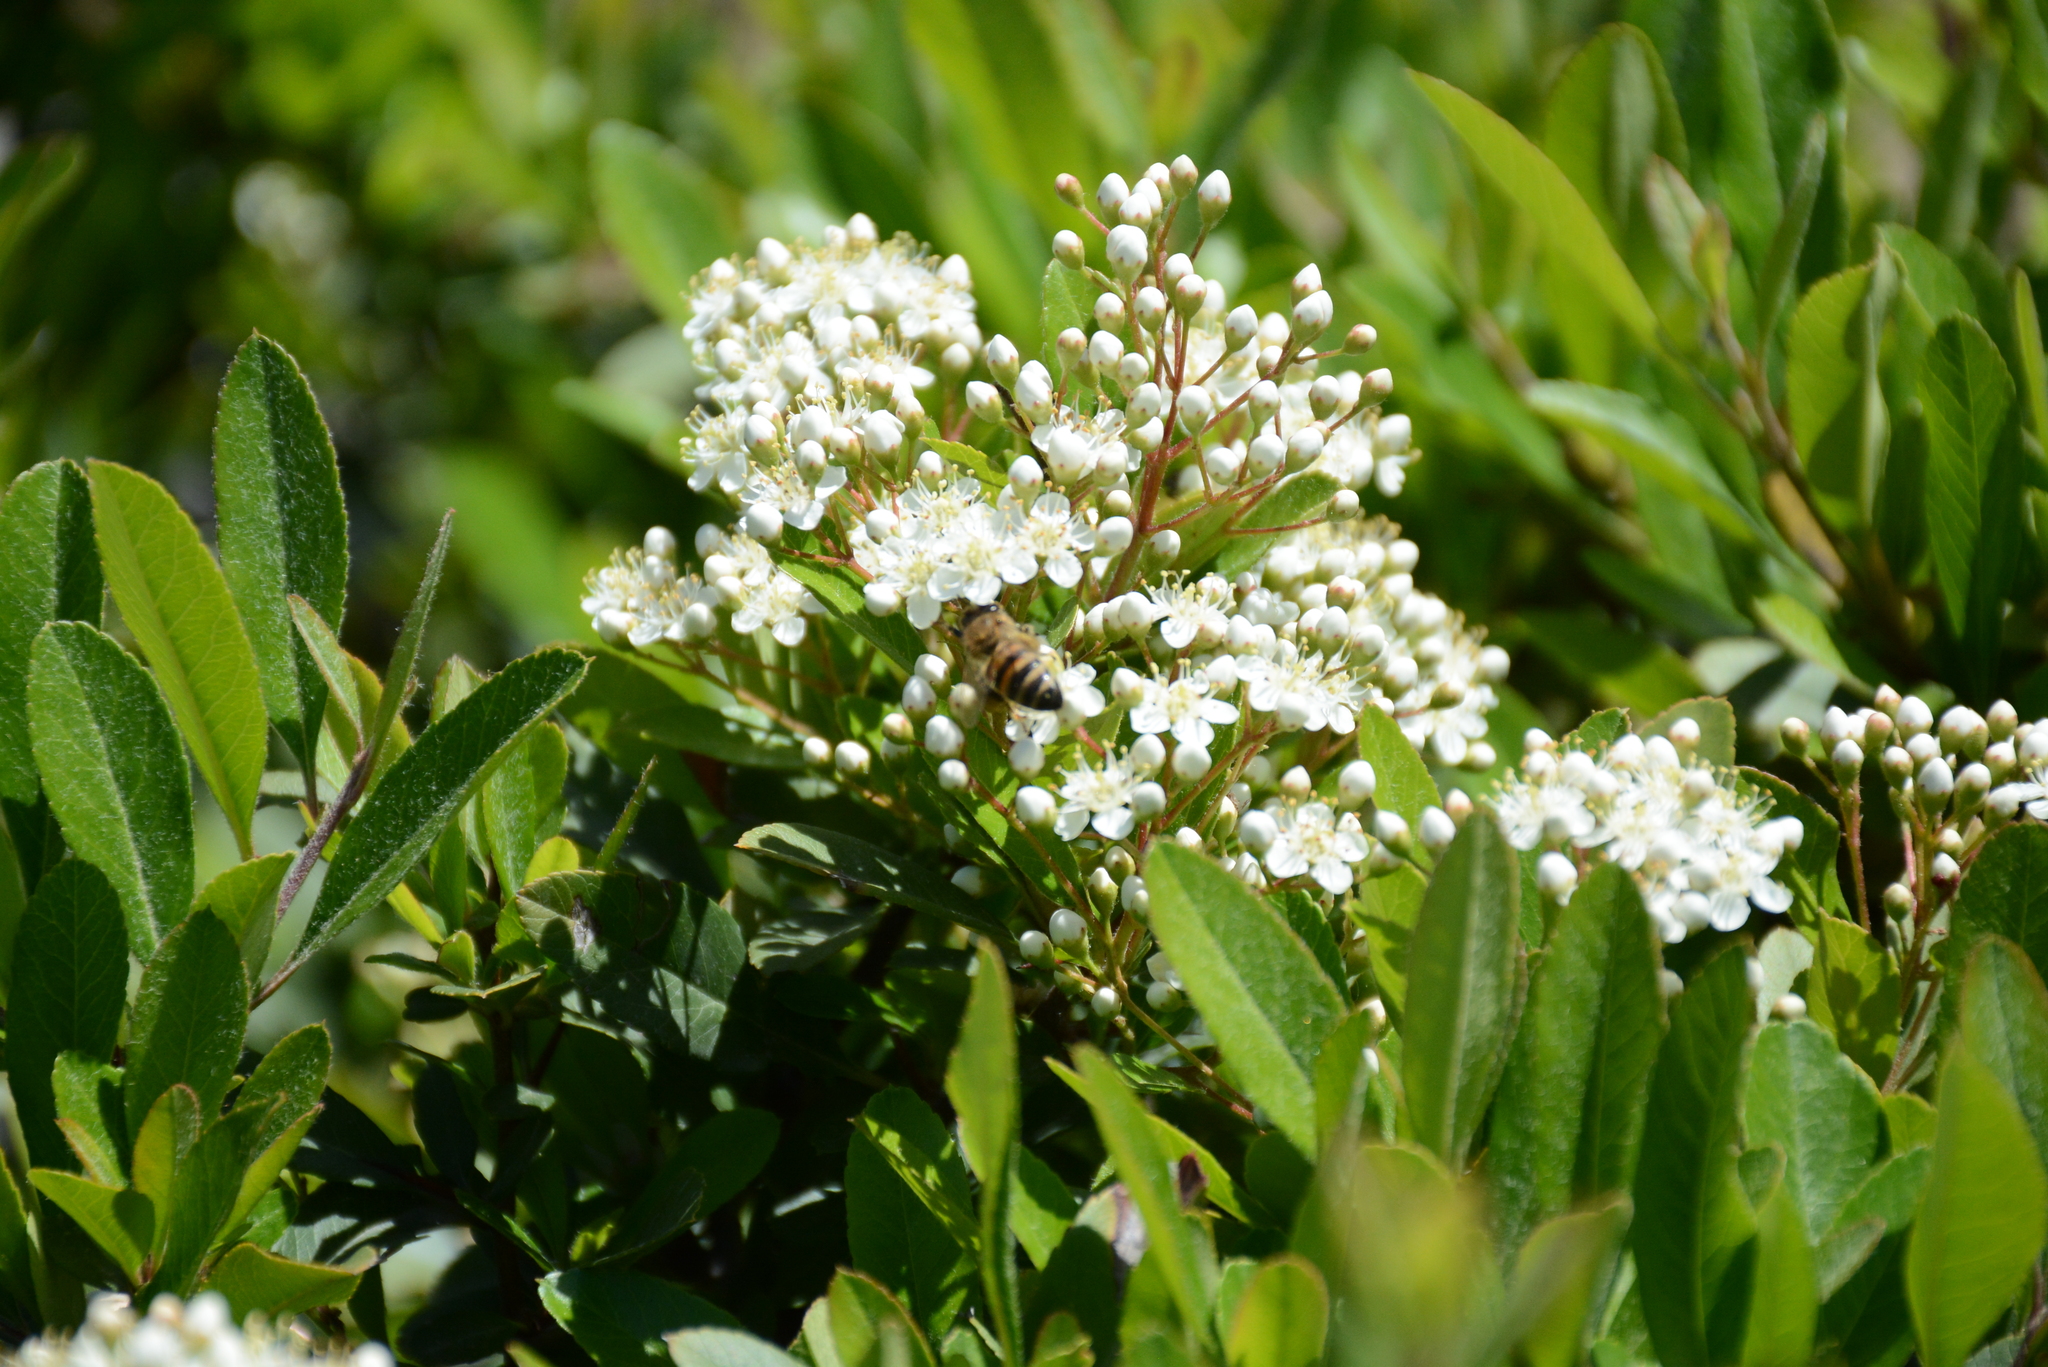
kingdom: Animalia
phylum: Arthropoda
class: Insecta
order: Hymenoptera
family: Apidae
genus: Apis
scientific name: Apis mellifera
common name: Honey bee
